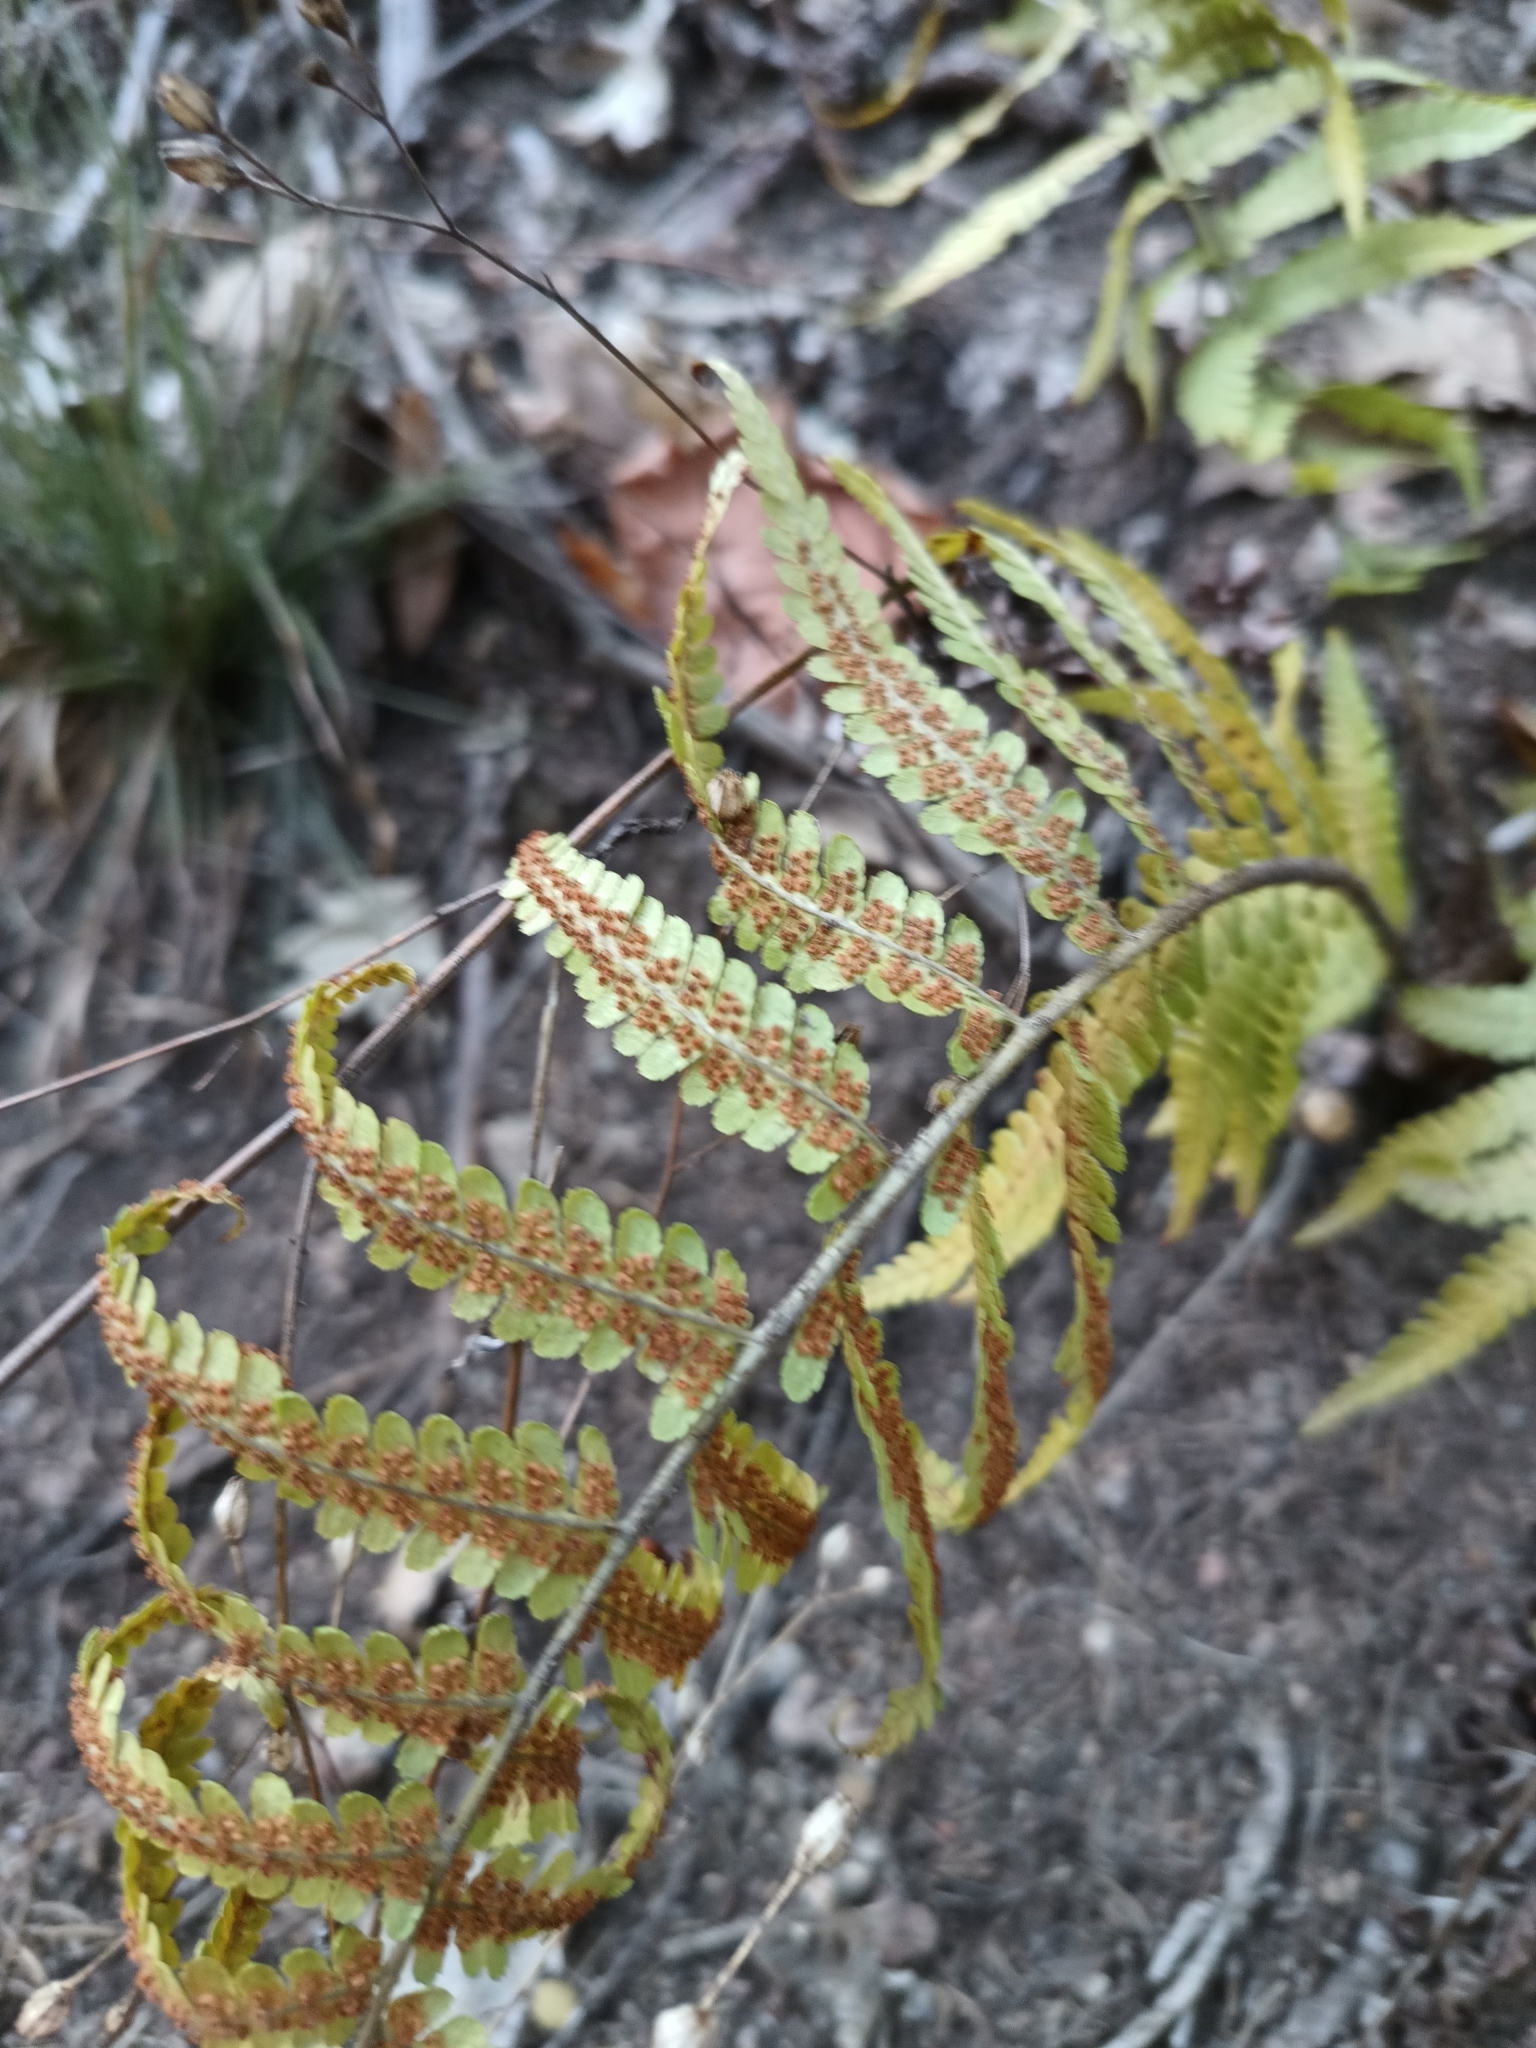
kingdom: Plantae
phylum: Tracheophyta
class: Polypodiopsida
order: Polypodiales
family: Dryopteridaceae
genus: Dryopteris
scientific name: Dryopteris filix-mas
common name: Male fern
